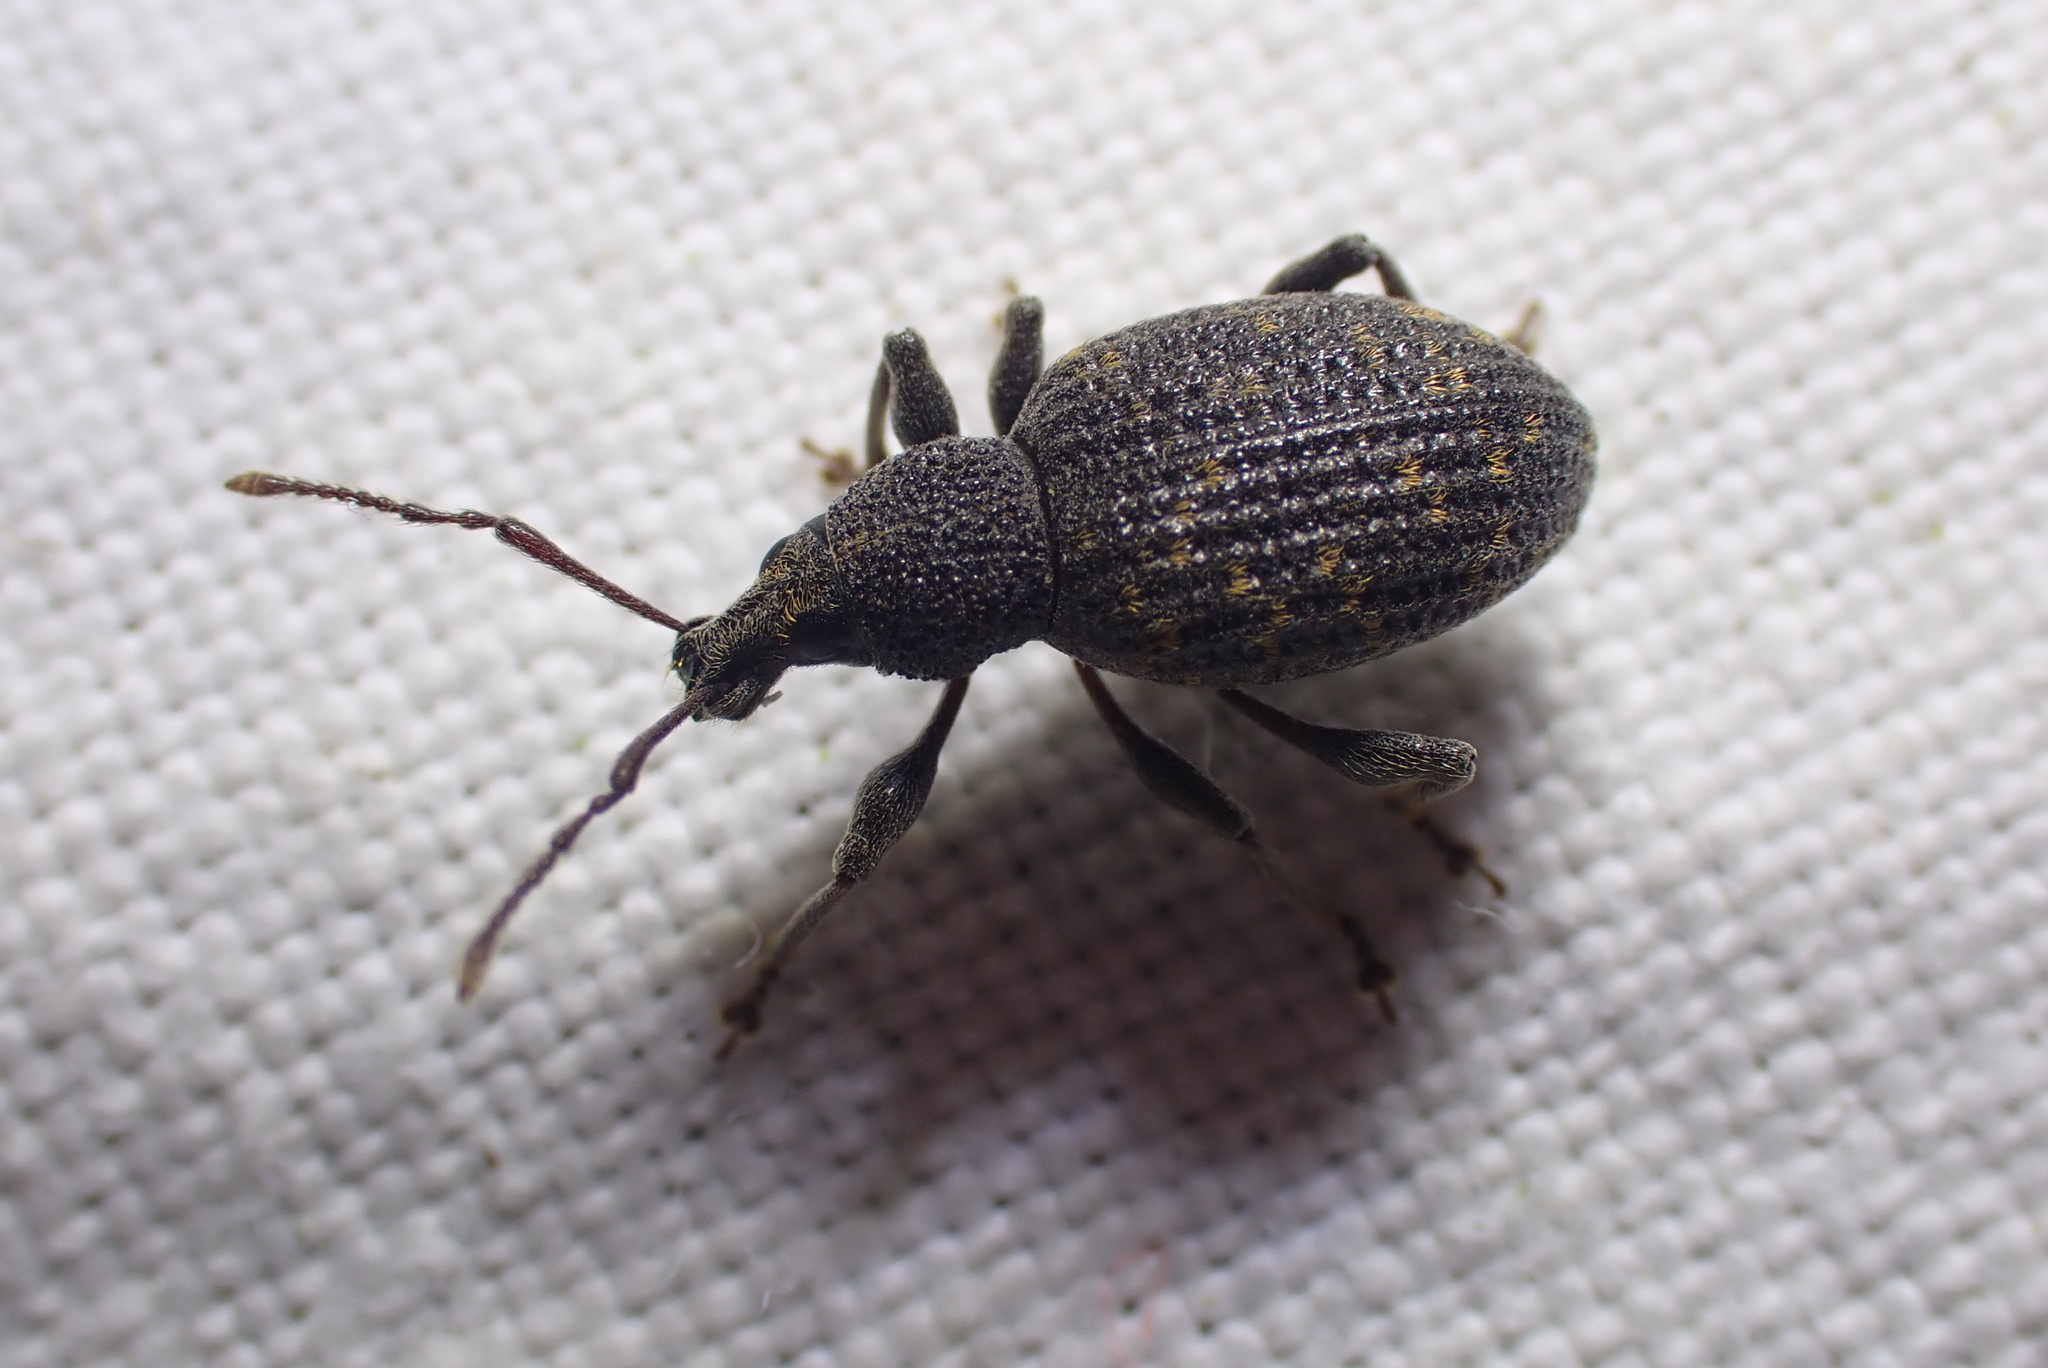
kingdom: Animalia
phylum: Arthropoda
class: Insecta
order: Coleoptera
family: Curculionidae
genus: Otiorhynchus
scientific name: Otiorhynchus sulcatus
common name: Black vine weevil
